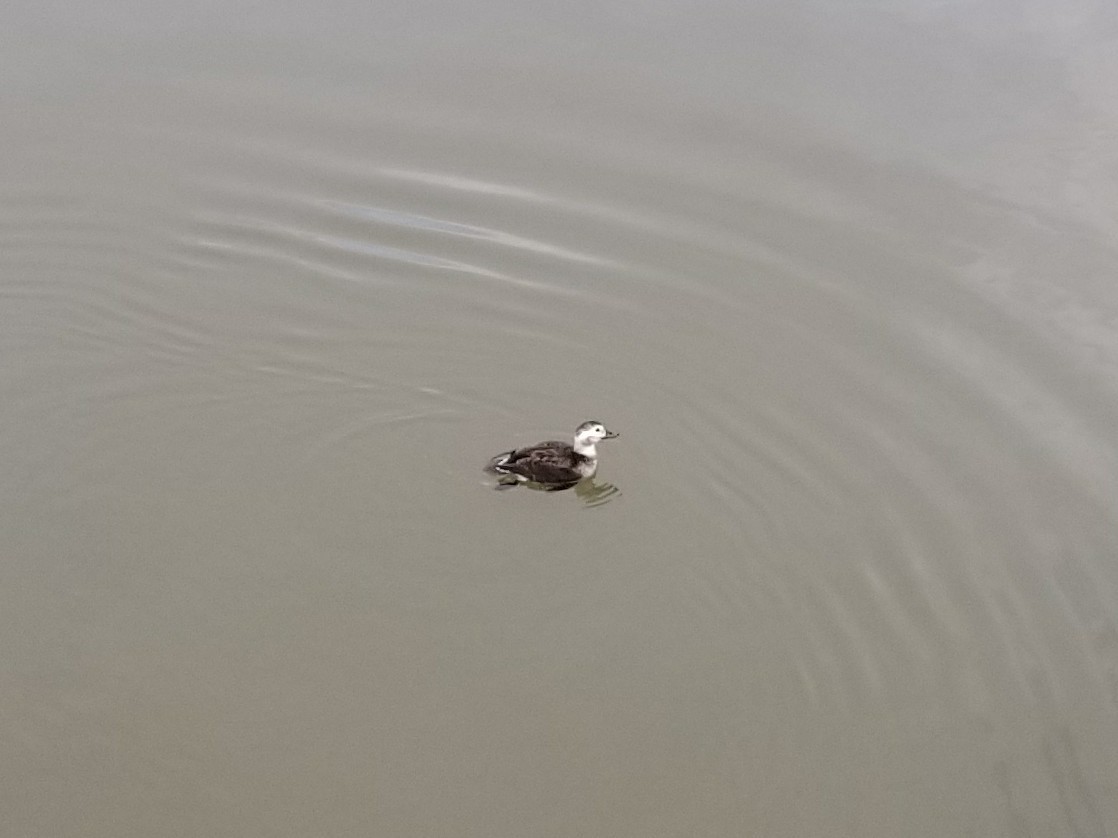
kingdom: Animalia
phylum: Chordata
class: Aves
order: Anseriformes
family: Anatidae
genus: Clangula
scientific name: Clangula hyemalis
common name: Long-tailed duck
